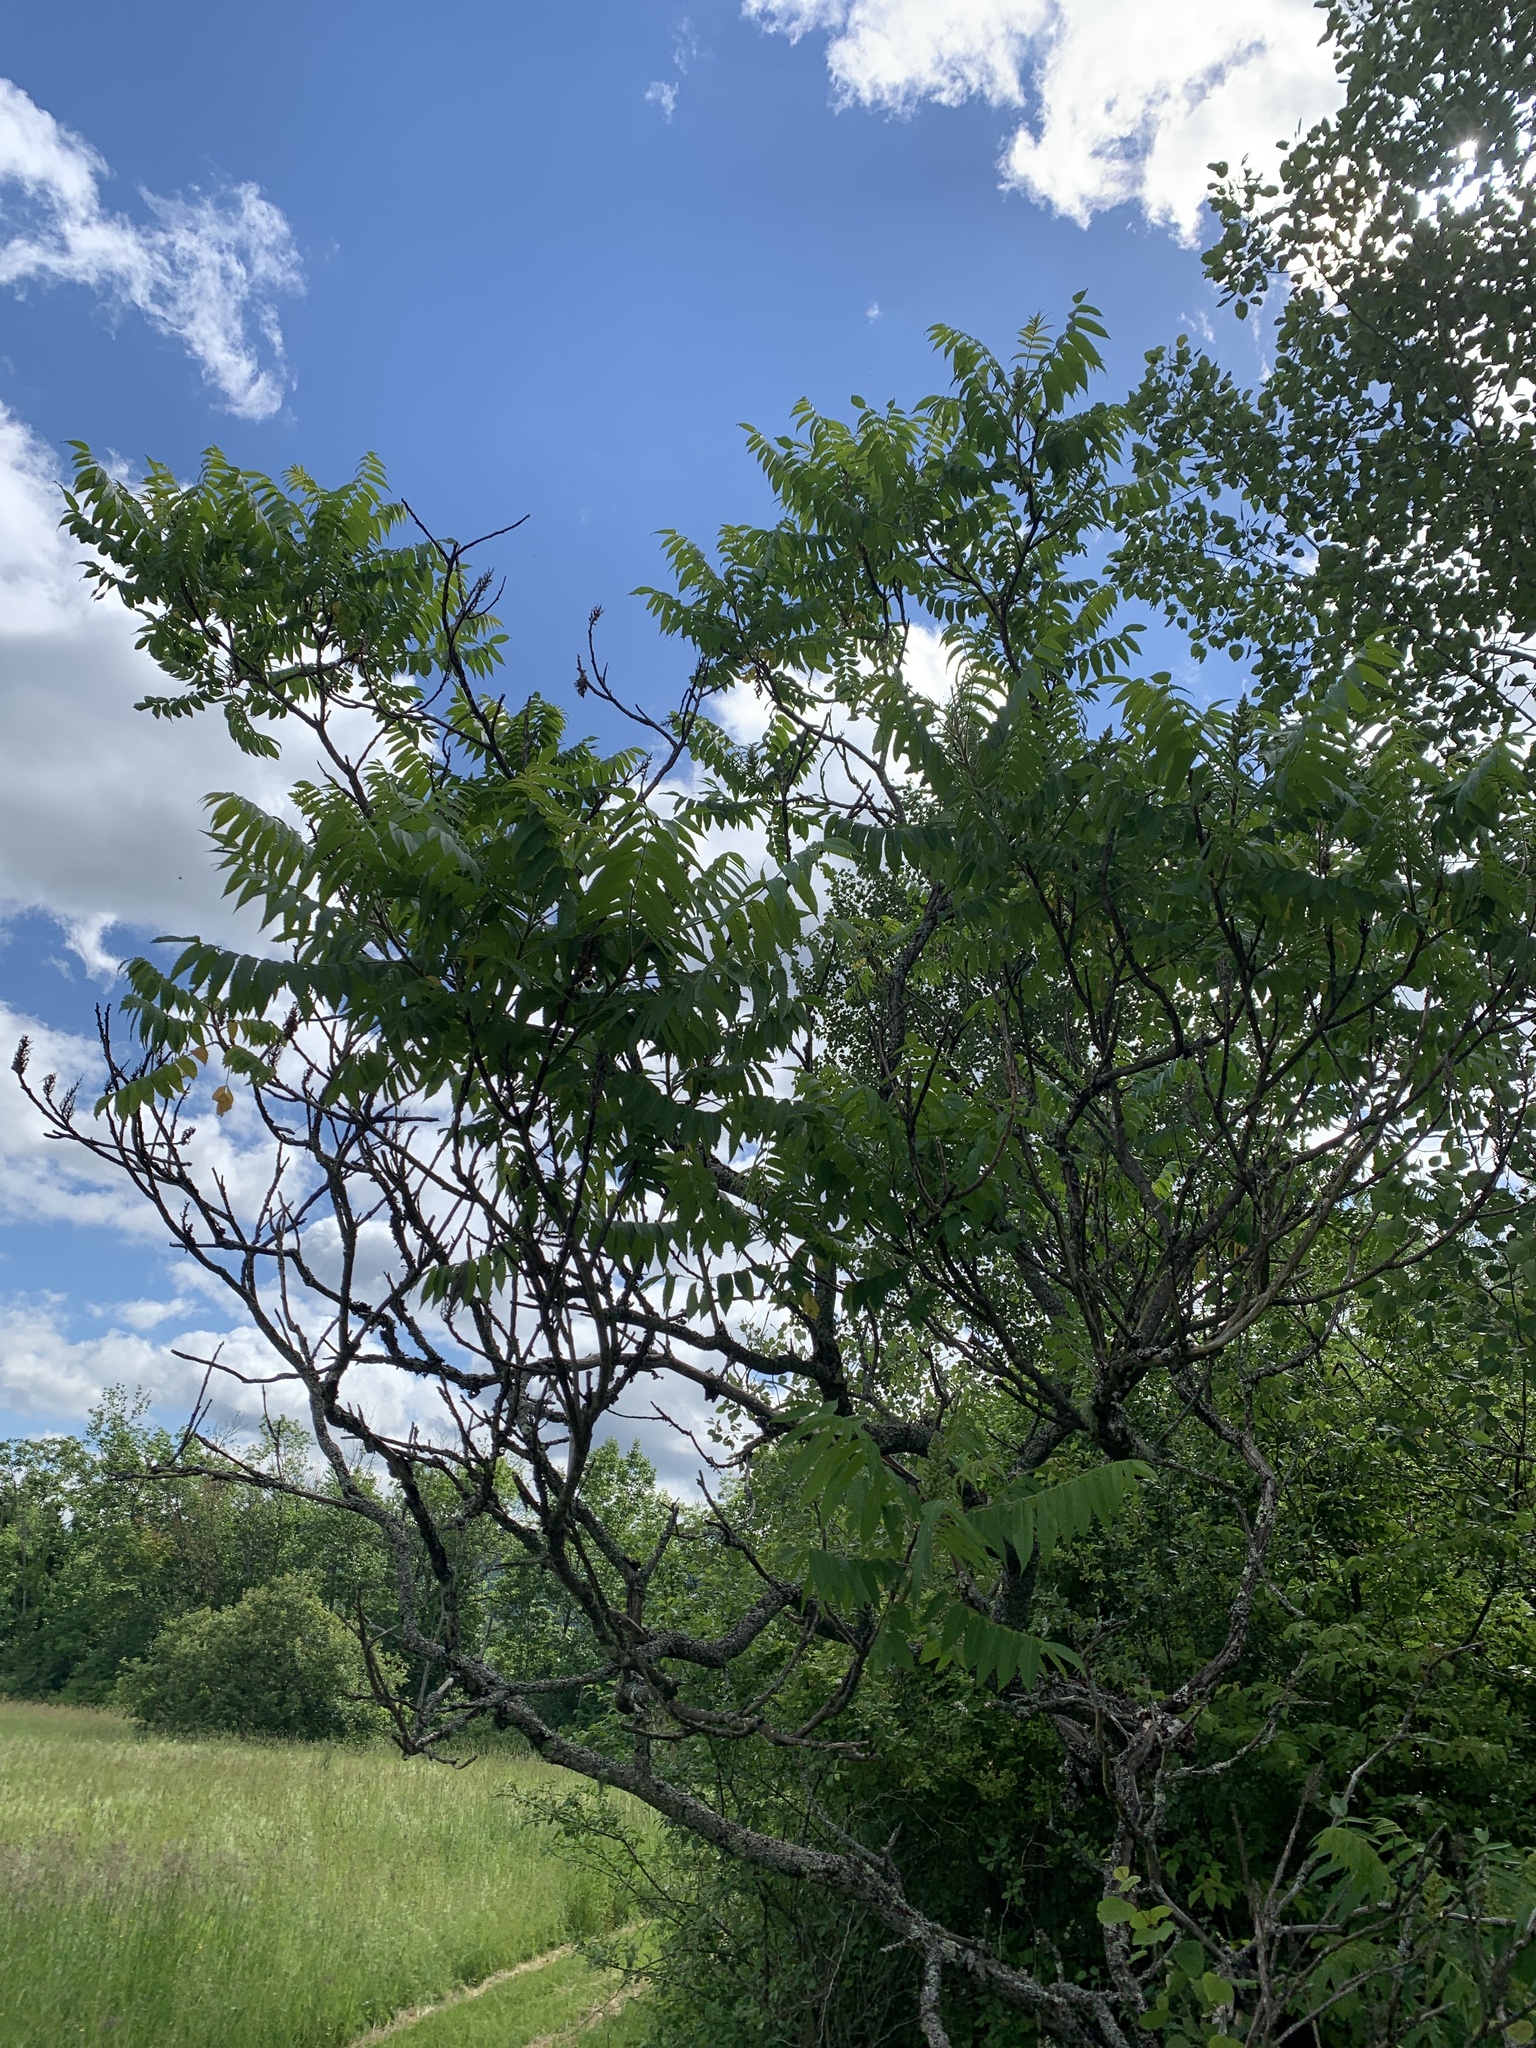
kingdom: Plantae
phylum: Tracheophyta
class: Magnoliopsida
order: Fagales
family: Juglandaceae
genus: Juglans
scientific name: Juglans cinerea
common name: Butternut
